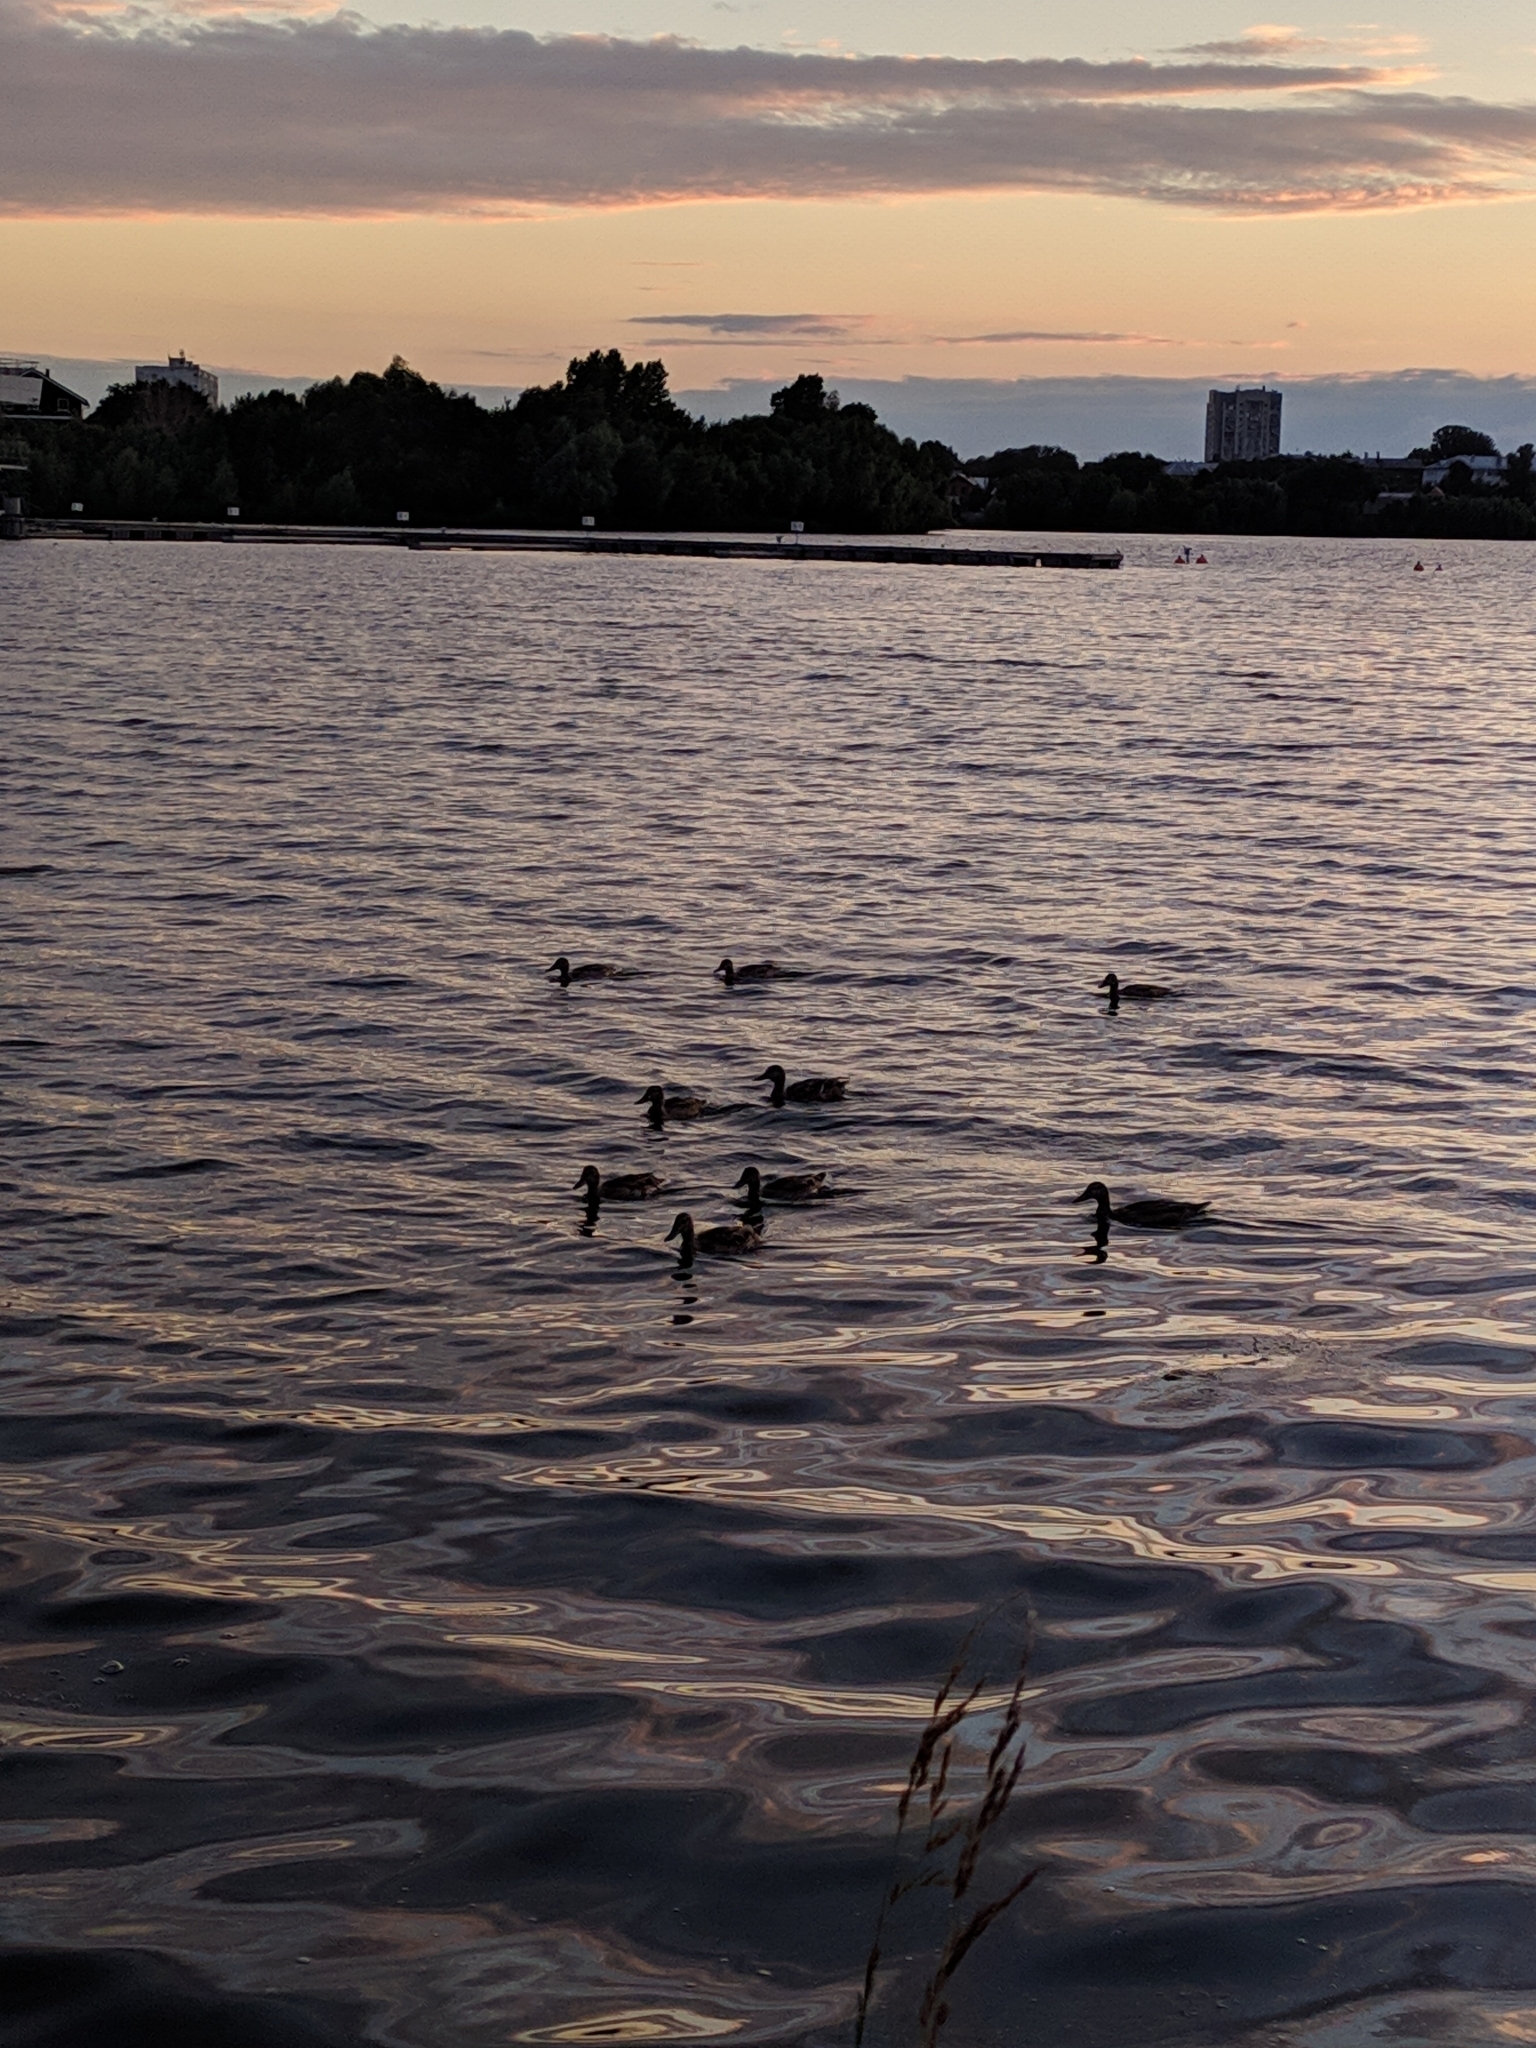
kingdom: Animalia
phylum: Chordata
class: Aves
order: Anseriformes
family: Anatidae
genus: Anas
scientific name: Anas platyrhynchos
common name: Mallard
